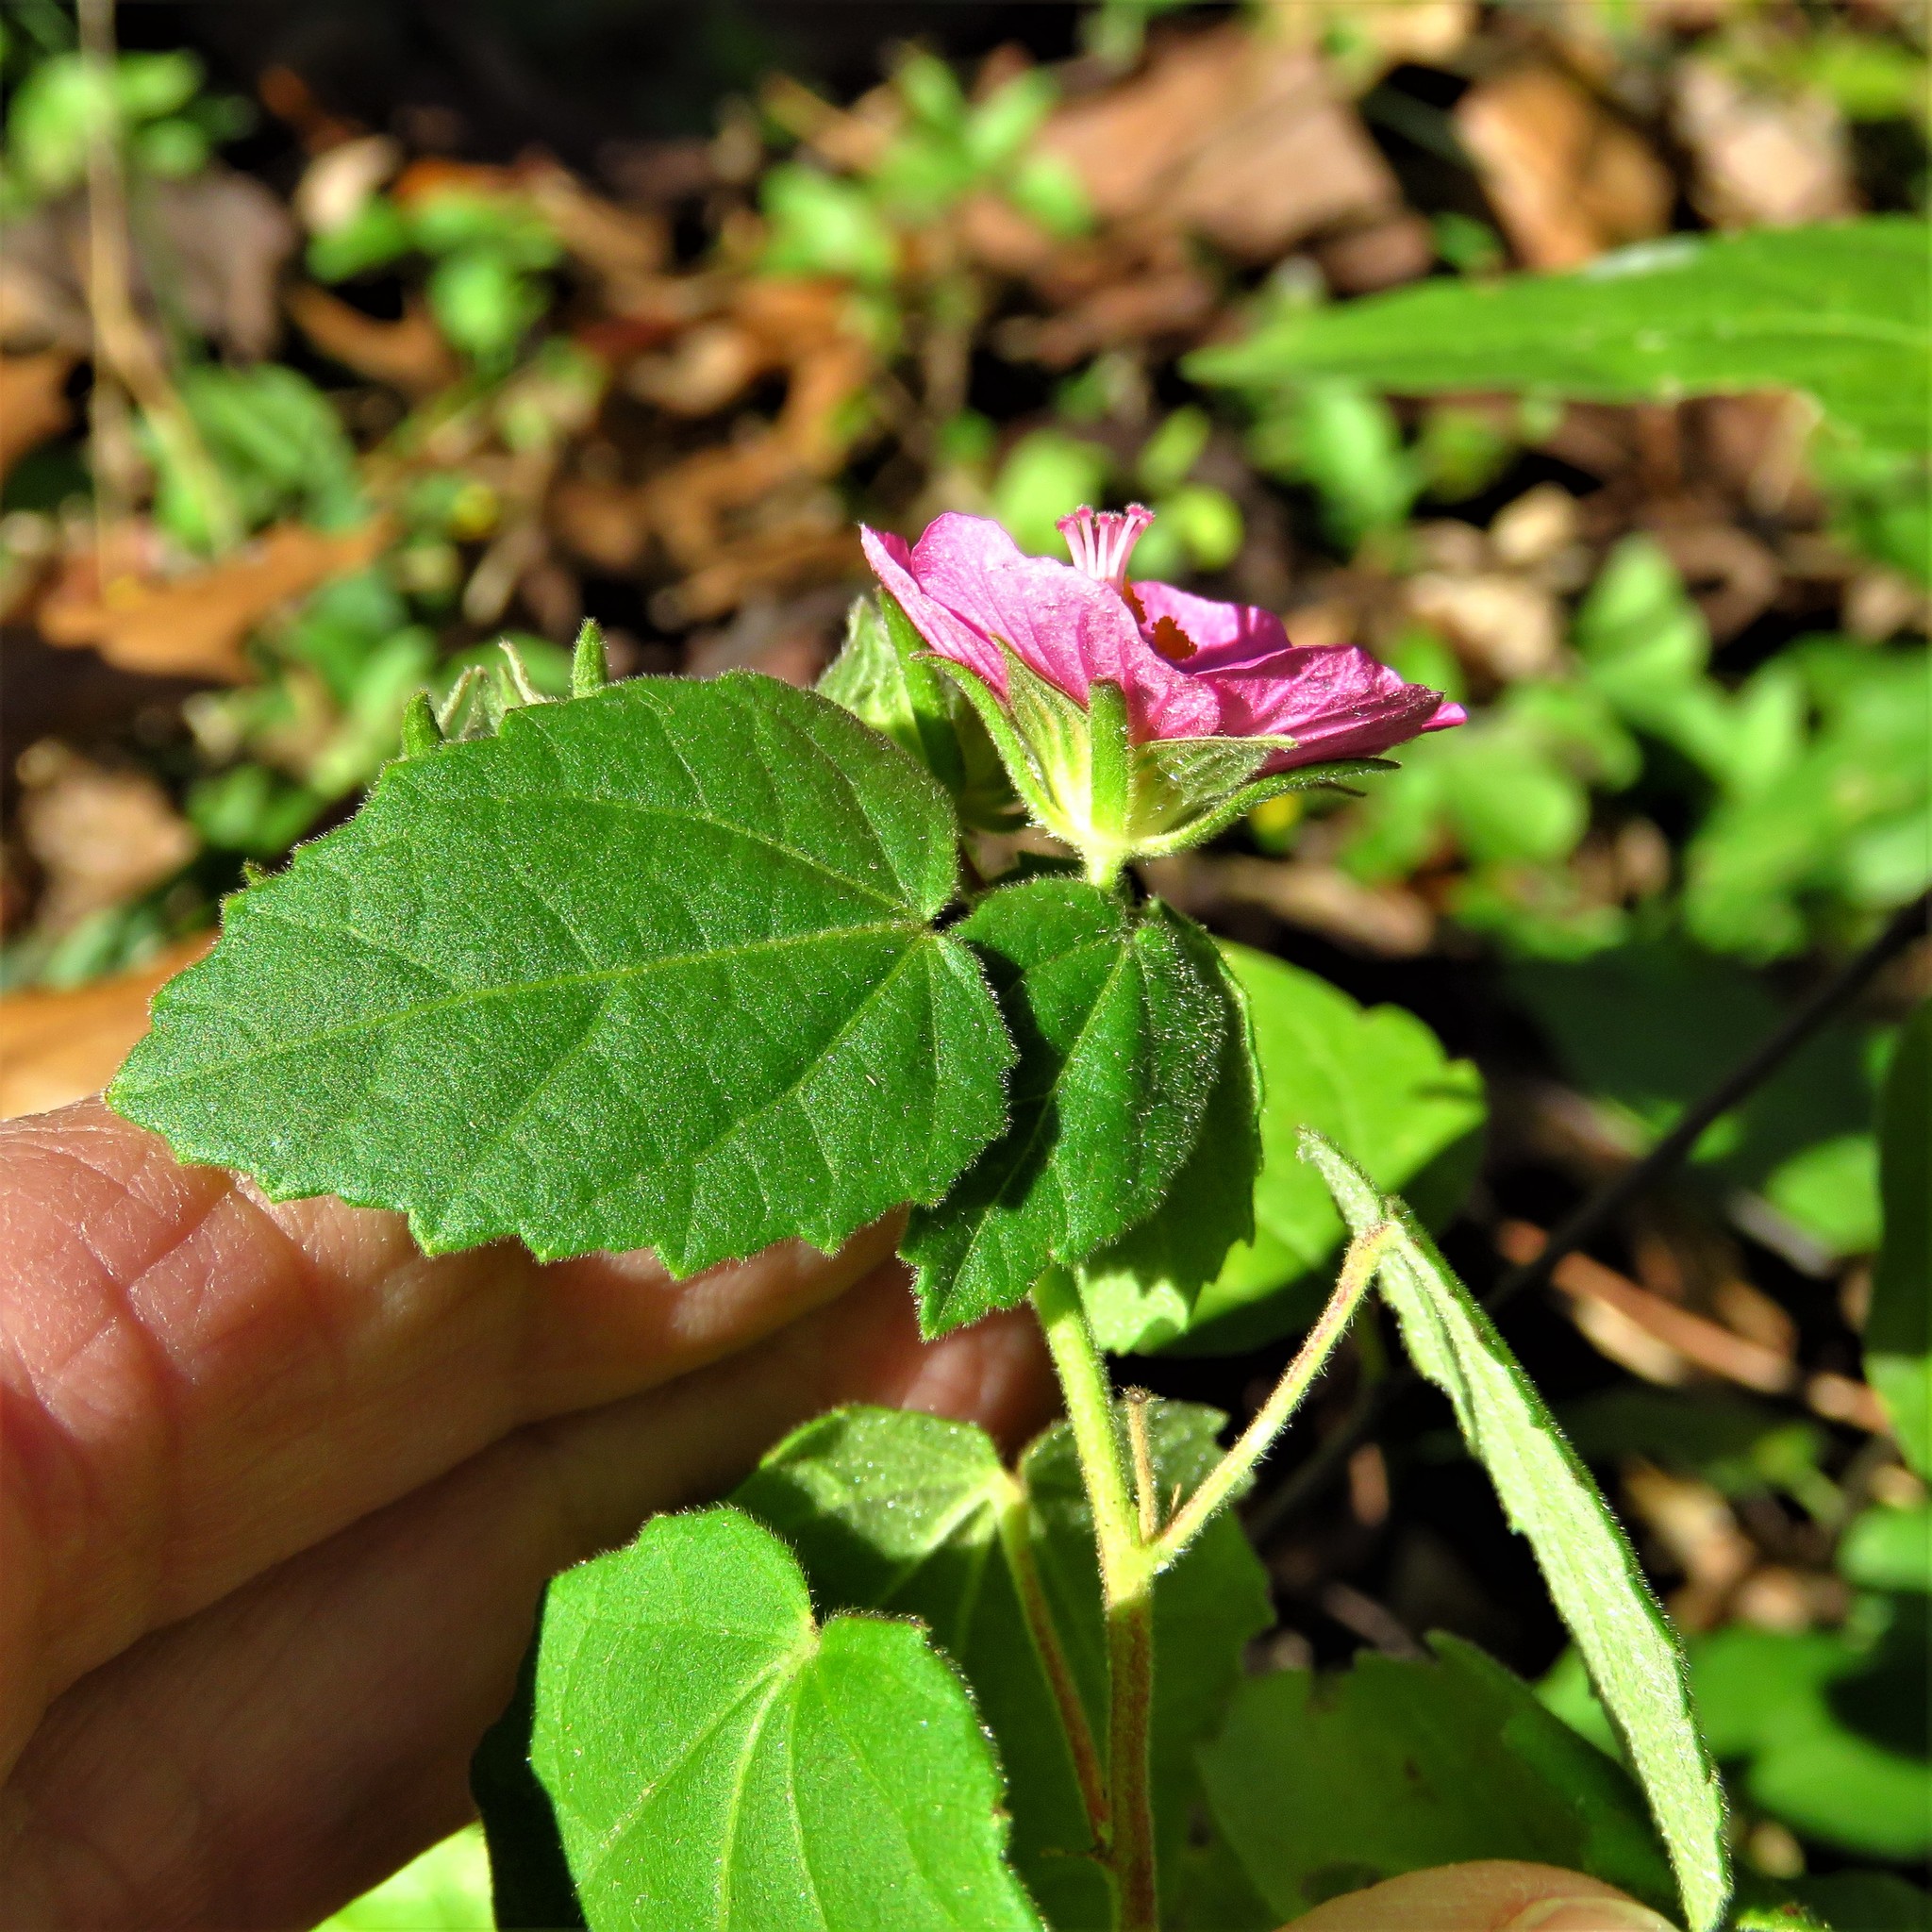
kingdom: Plantae
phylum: Tracheophyta
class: Magnoliopsida
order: Malvales
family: Malvaceae
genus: Pavonia
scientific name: Pavonia lasiopetala
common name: Texas swamp-mallow
